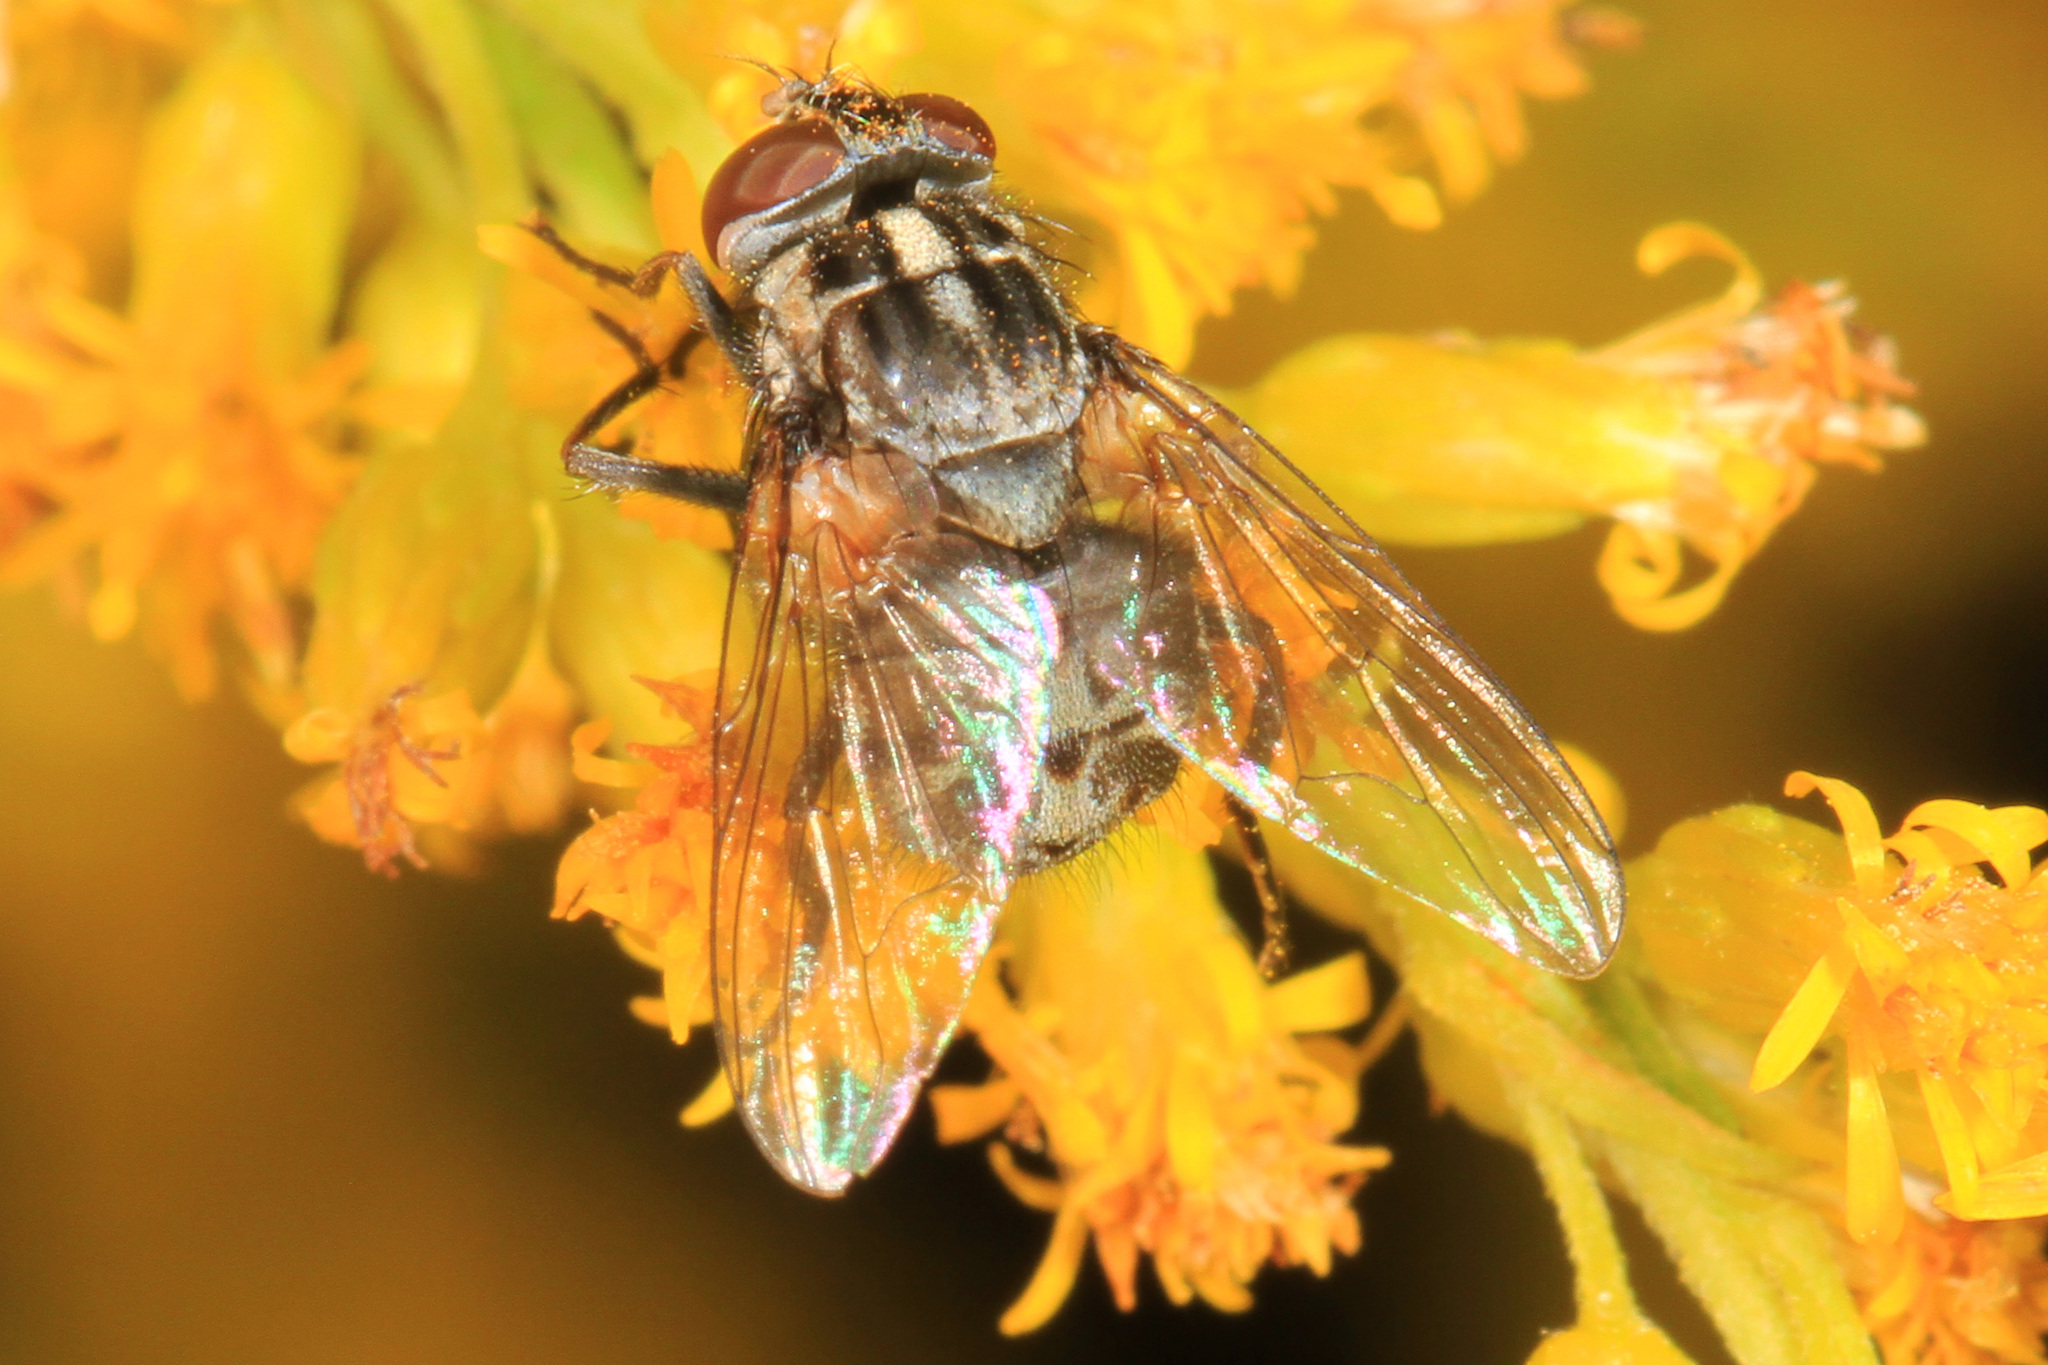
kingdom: Animalia
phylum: Arthropoda
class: Insecta
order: Diptera
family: Muscidae
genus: Stomoxys
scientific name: Stomoxys calcitrans
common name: Stable fly
